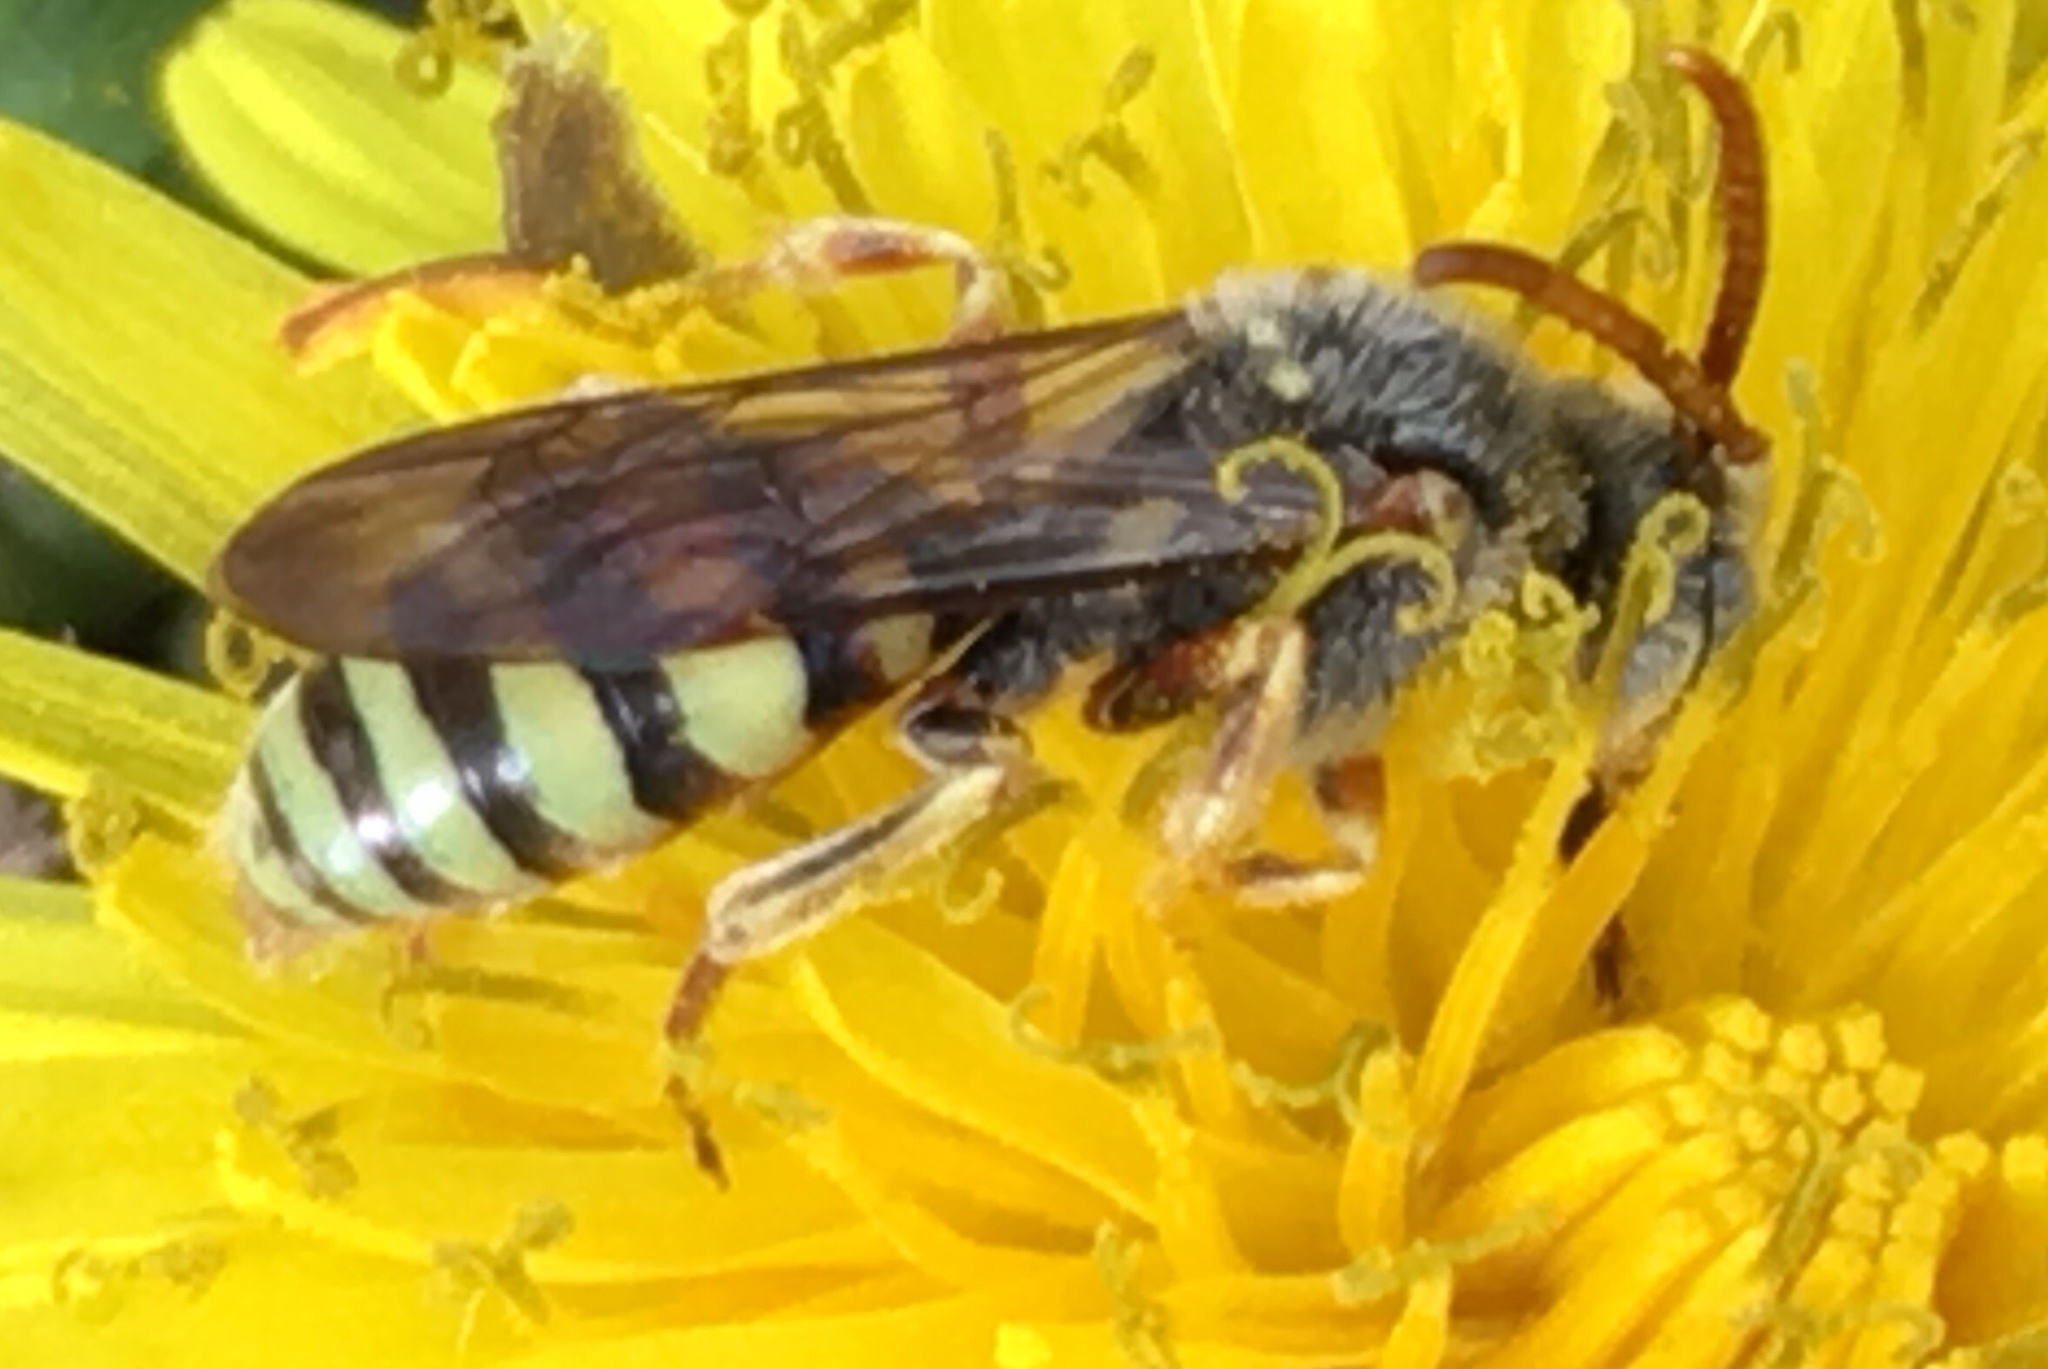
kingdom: Animalia
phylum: Arthropoda
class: Insecta
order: Hymenoptera
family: Apidae
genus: Nomada
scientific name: Nomada superba
